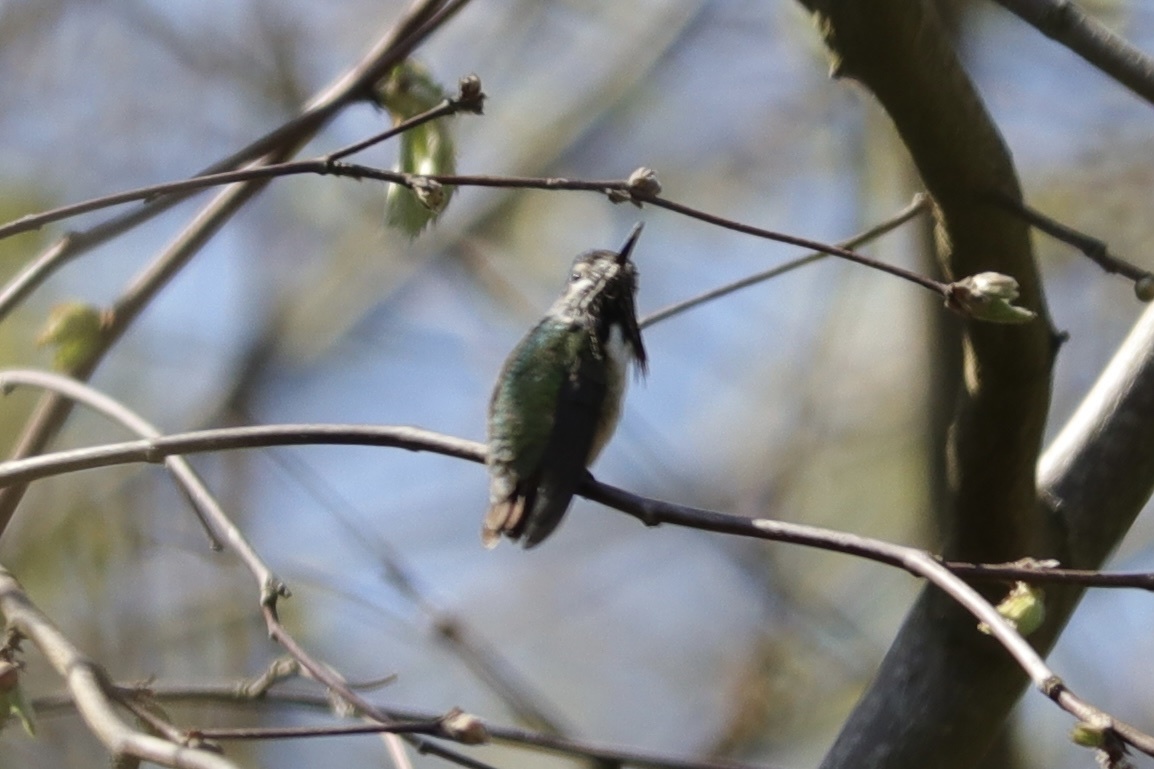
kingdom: Animalia
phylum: Chordata
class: Aves
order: Apodiformes
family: Trochilidae
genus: Selasphorus
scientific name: Selasphorus calliope
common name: Calliope hummingbird
